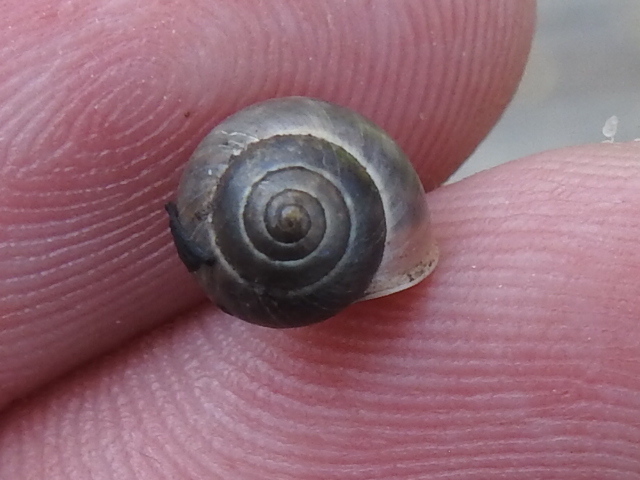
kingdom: Animalia
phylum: Mollusca
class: Gastropoda
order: Cycloneritida
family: Helicinidae
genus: Helicina
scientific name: Helicina orbiculata
